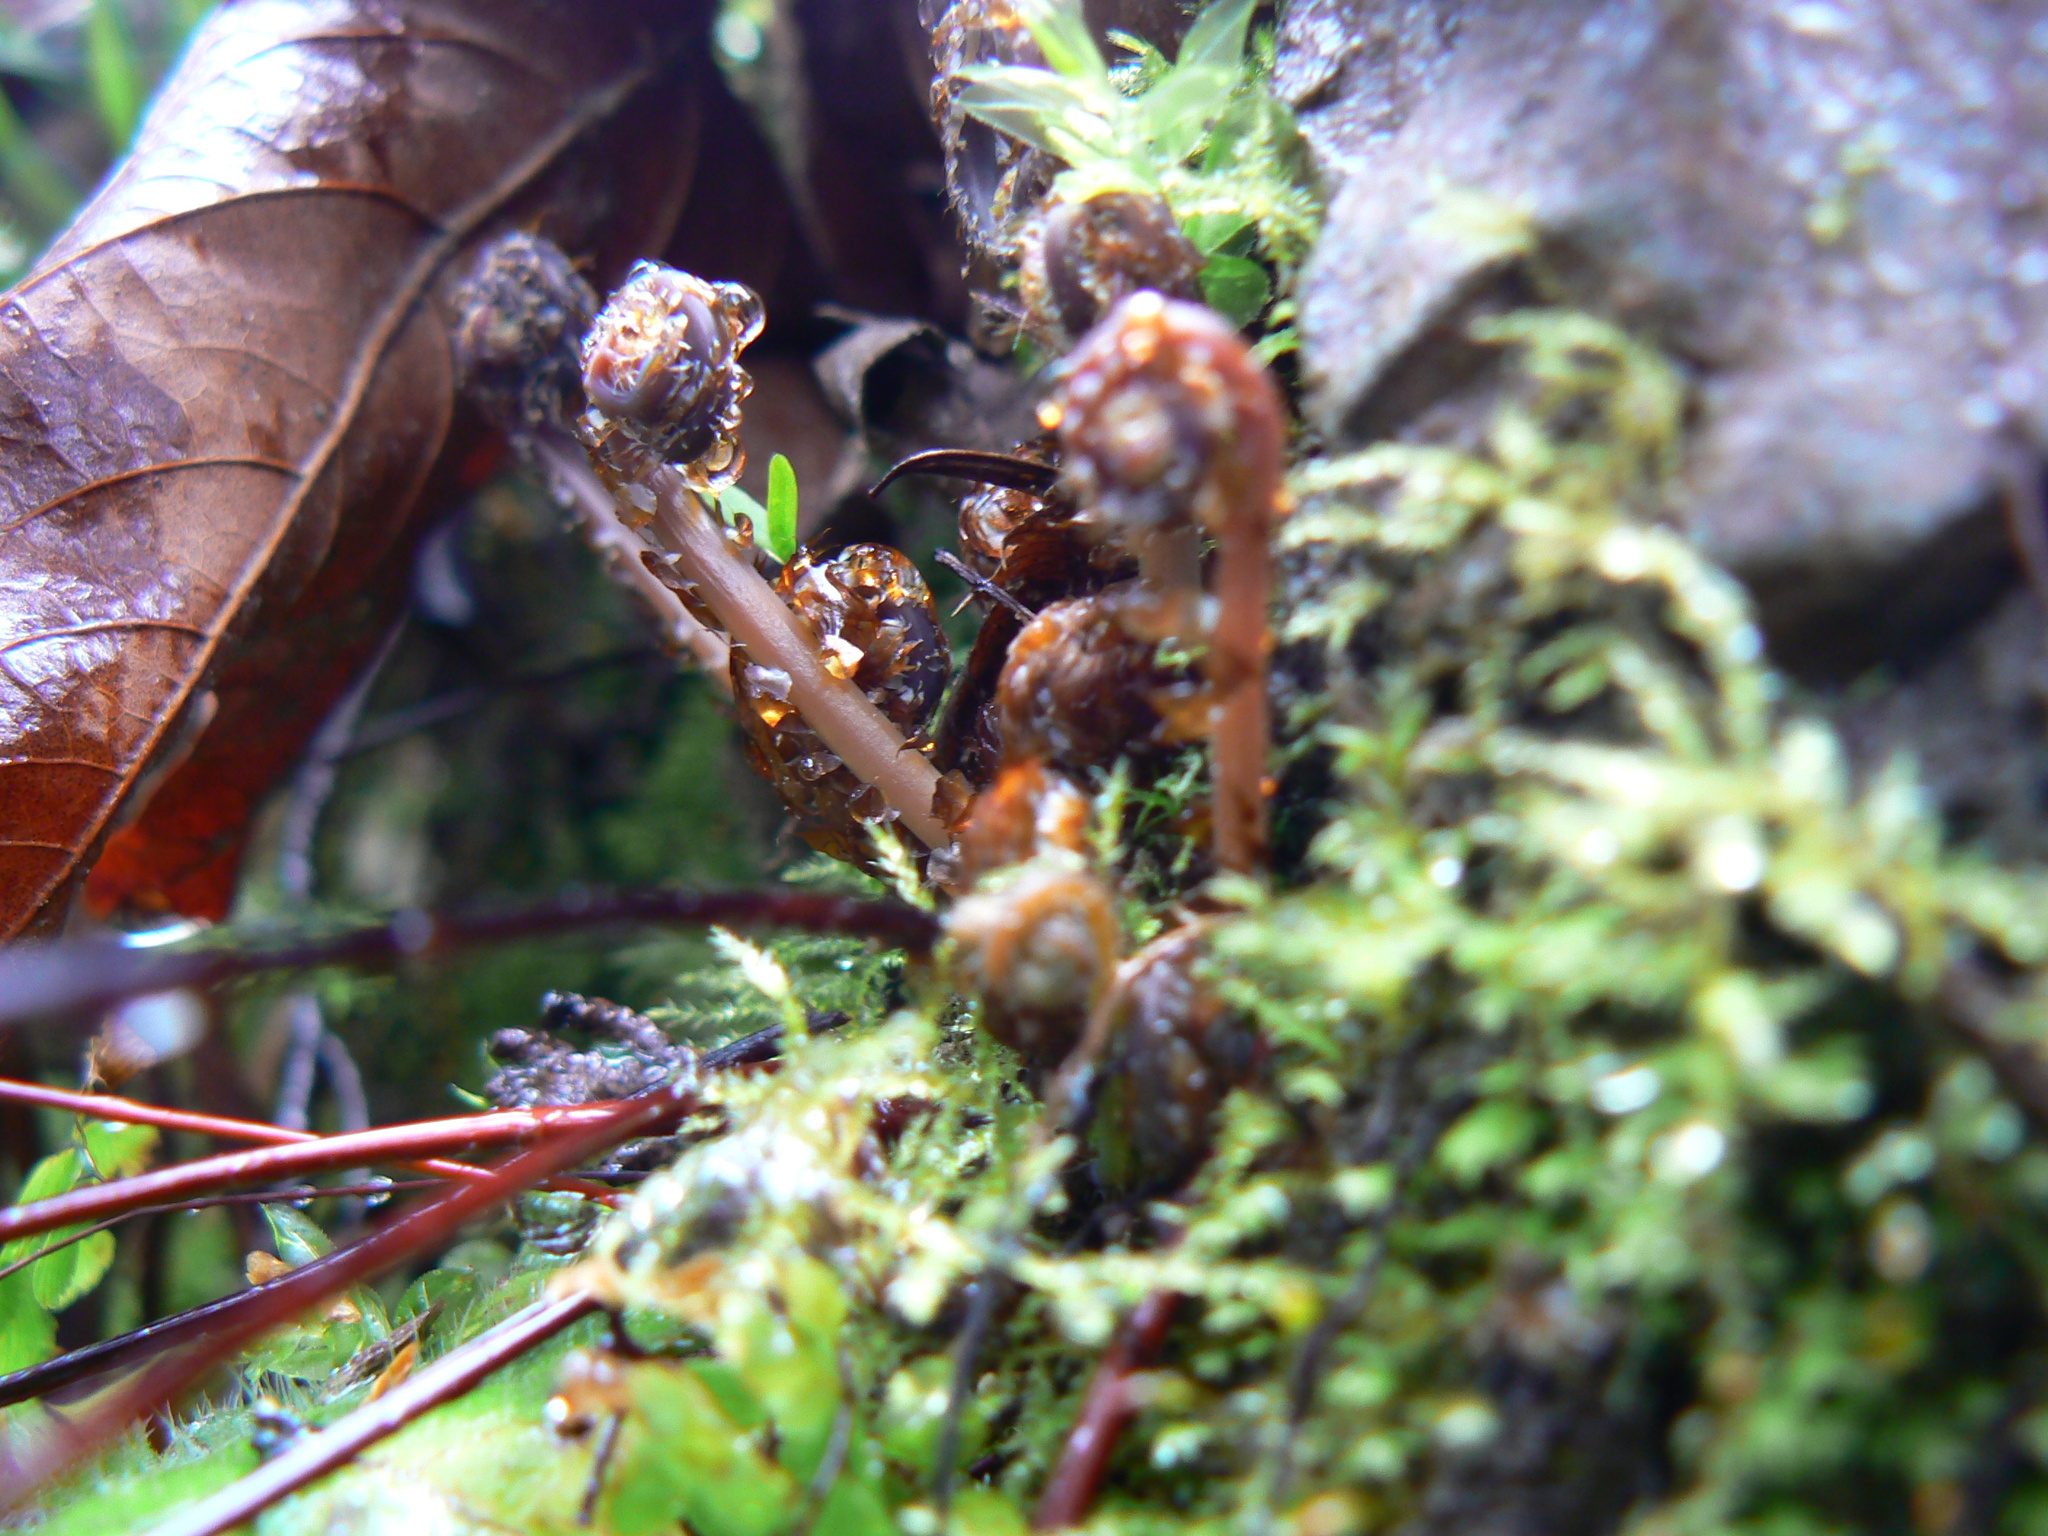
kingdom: Plantae
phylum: Tracheophyta
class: Polypodiopsida
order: Polypodiales
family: Pteridaceae
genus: Adiantum
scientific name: Adiantum aleuticum
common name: Aleutian maidenhair fern
